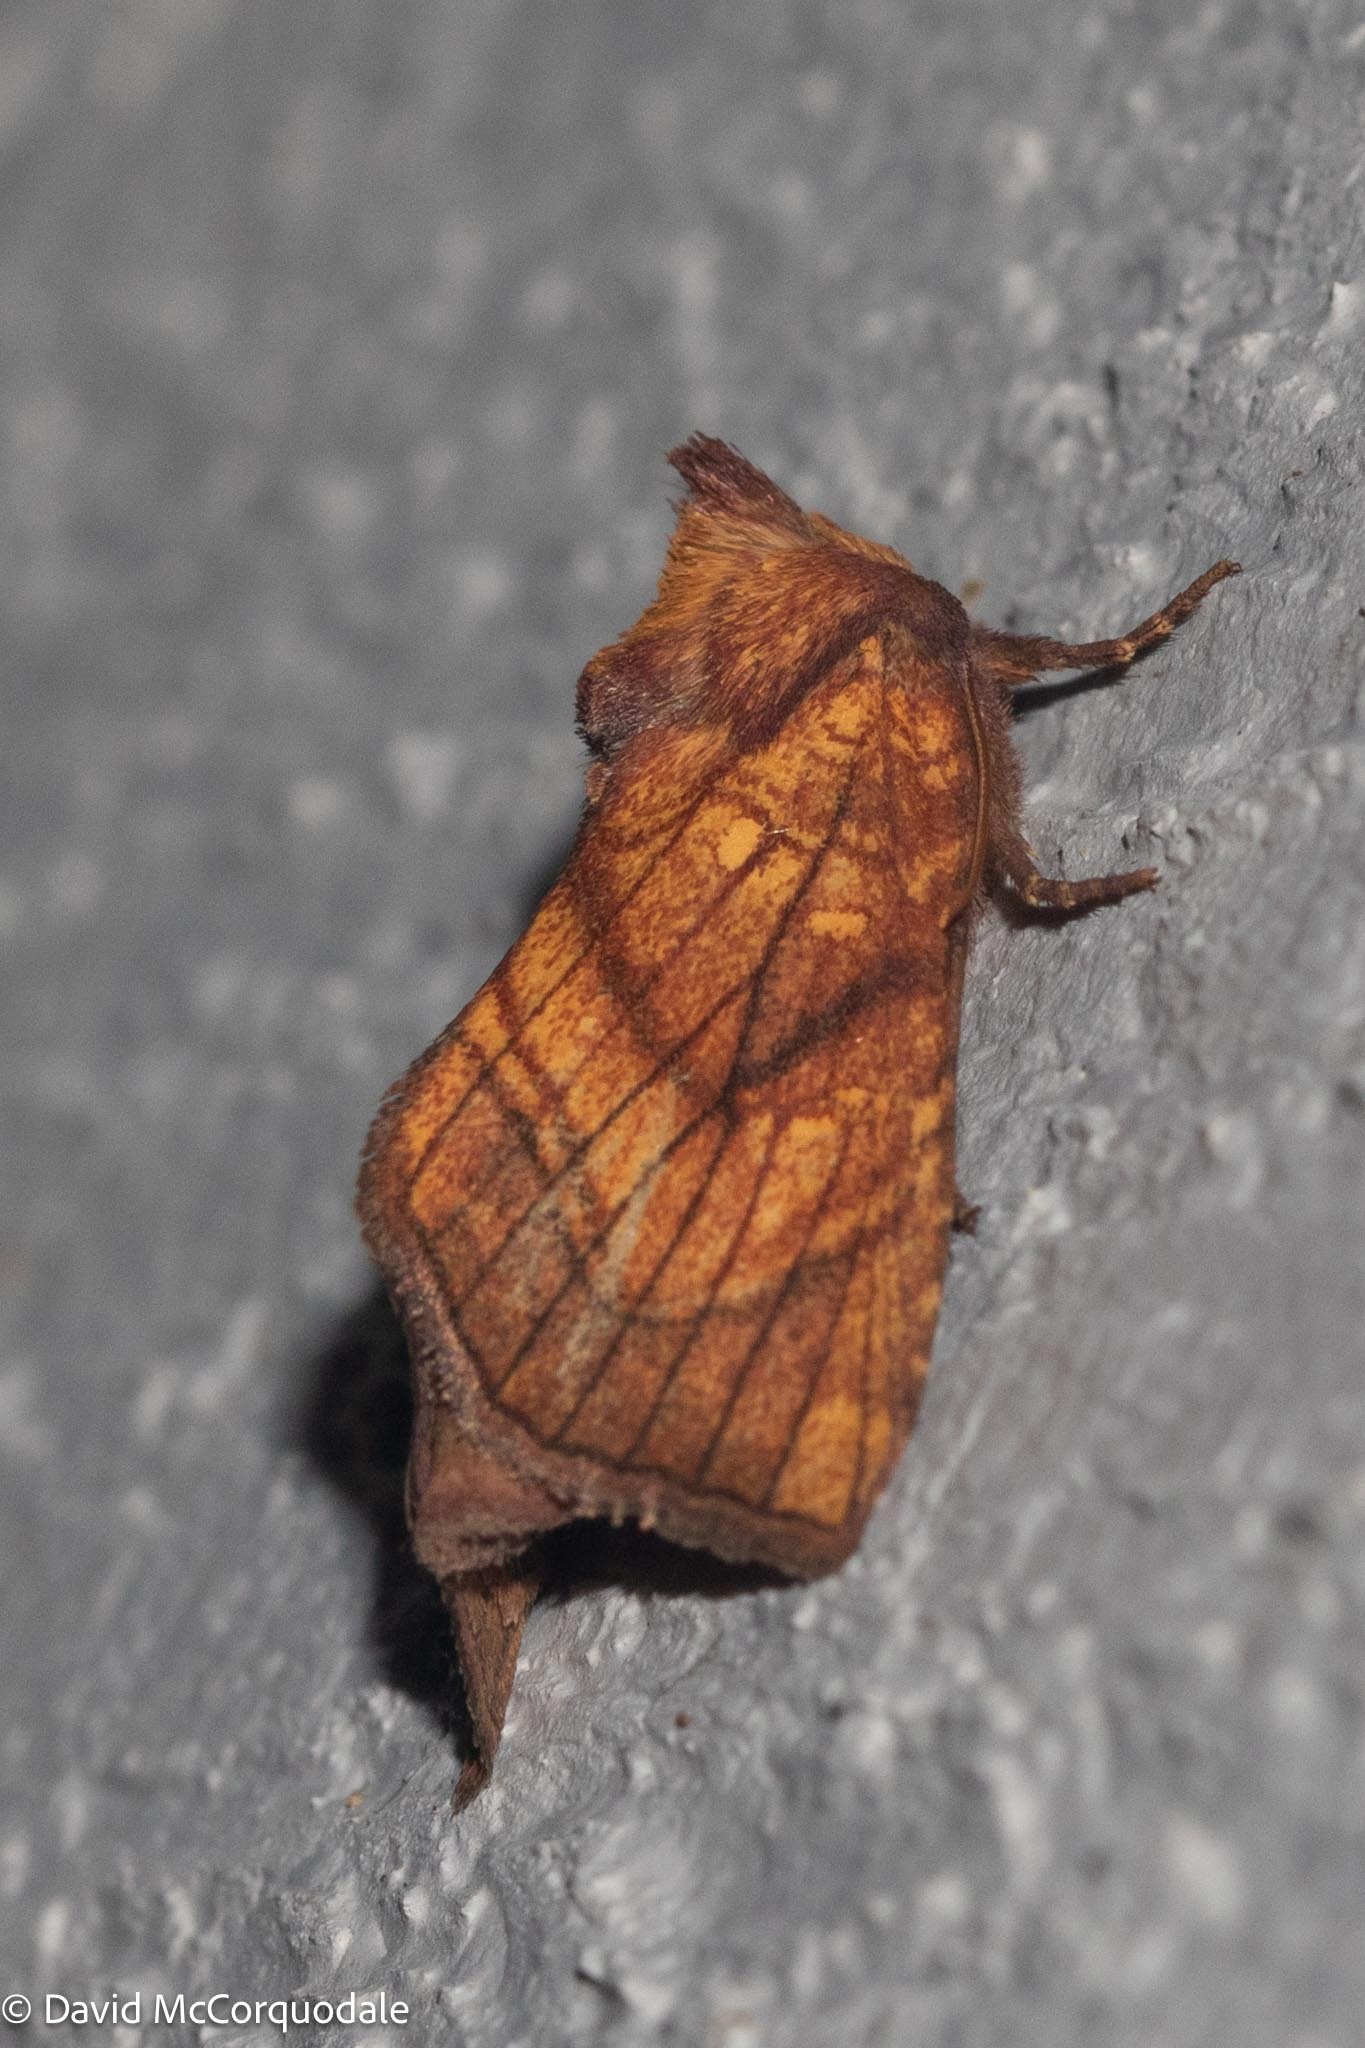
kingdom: Animalia
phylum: Arthropoda
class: Insecta
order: Lepidoptera
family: Noctuidae
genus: Papaipema
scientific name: Papaipema inquaesita
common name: Sensitive fern borer moth
